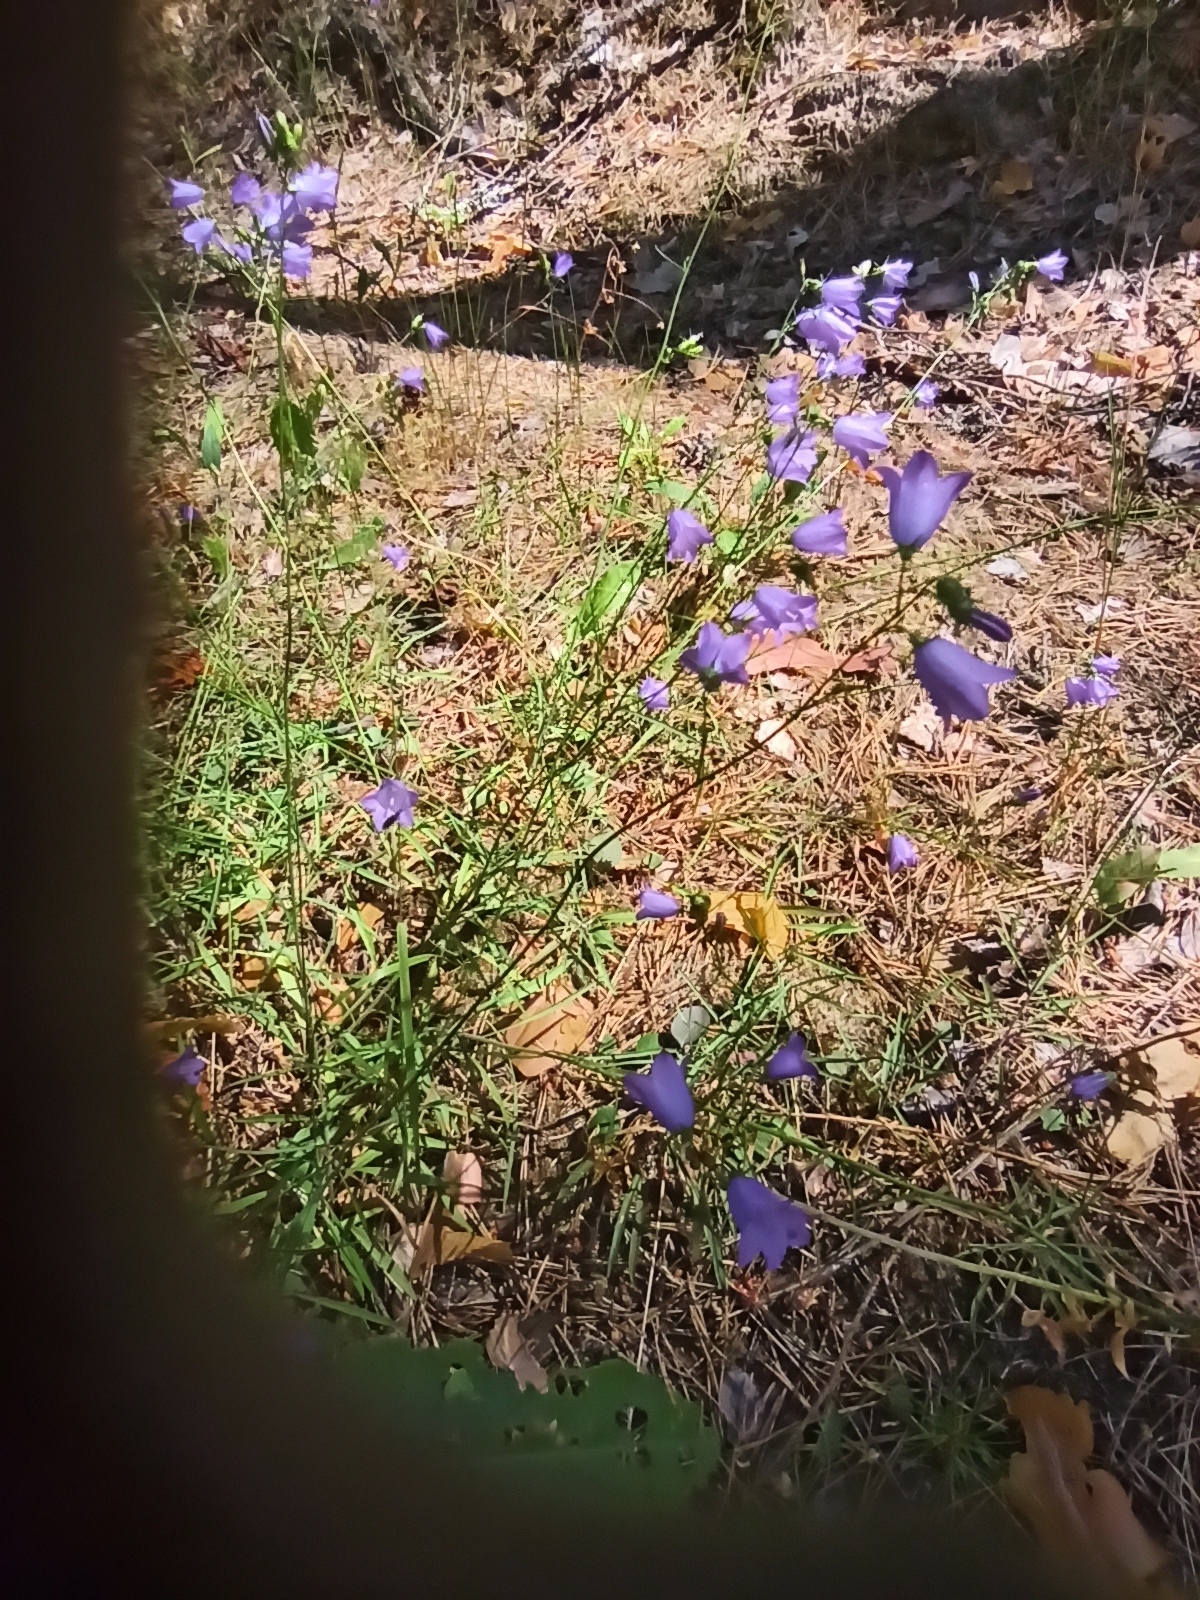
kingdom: Plantae
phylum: Tracheophyta
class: Magnoliopsida
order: Asterales
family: Campanulaceae
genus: Campanula
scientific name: Campanula rotundifolia
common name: Harebell
